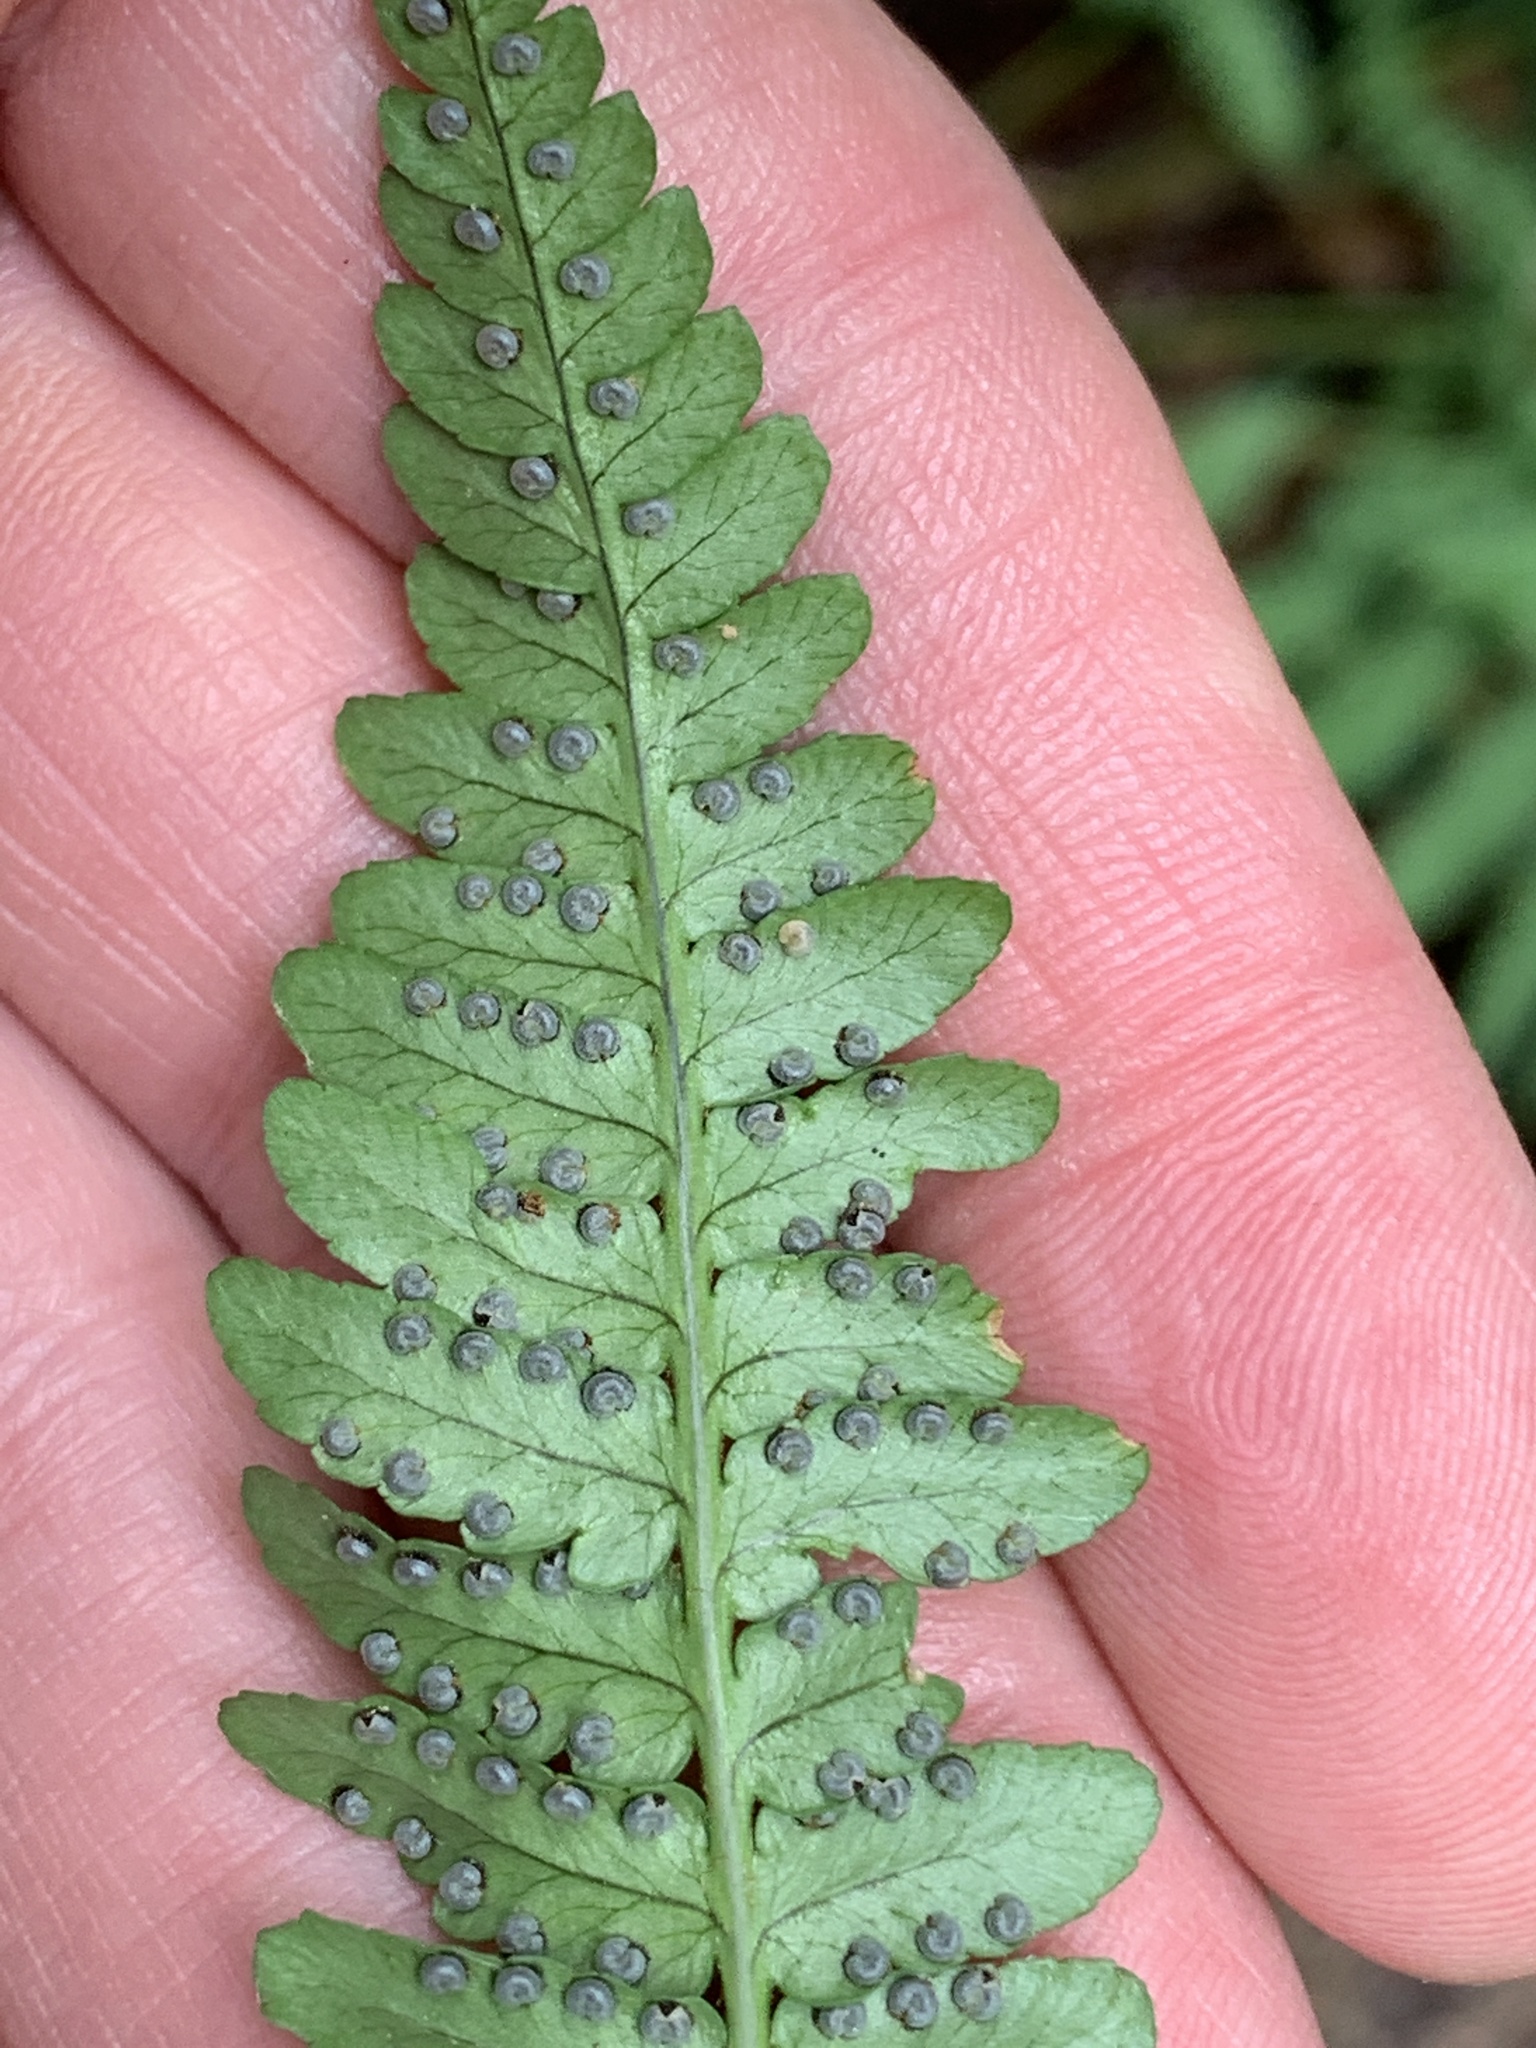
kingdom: Plantae
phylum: Tracheophyta
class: Polypodiopsida
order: Polypodiales
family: Dryopteridaceae
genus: Dryopteris
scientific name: Dryopteris marginalis
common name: Marginal wood fern
